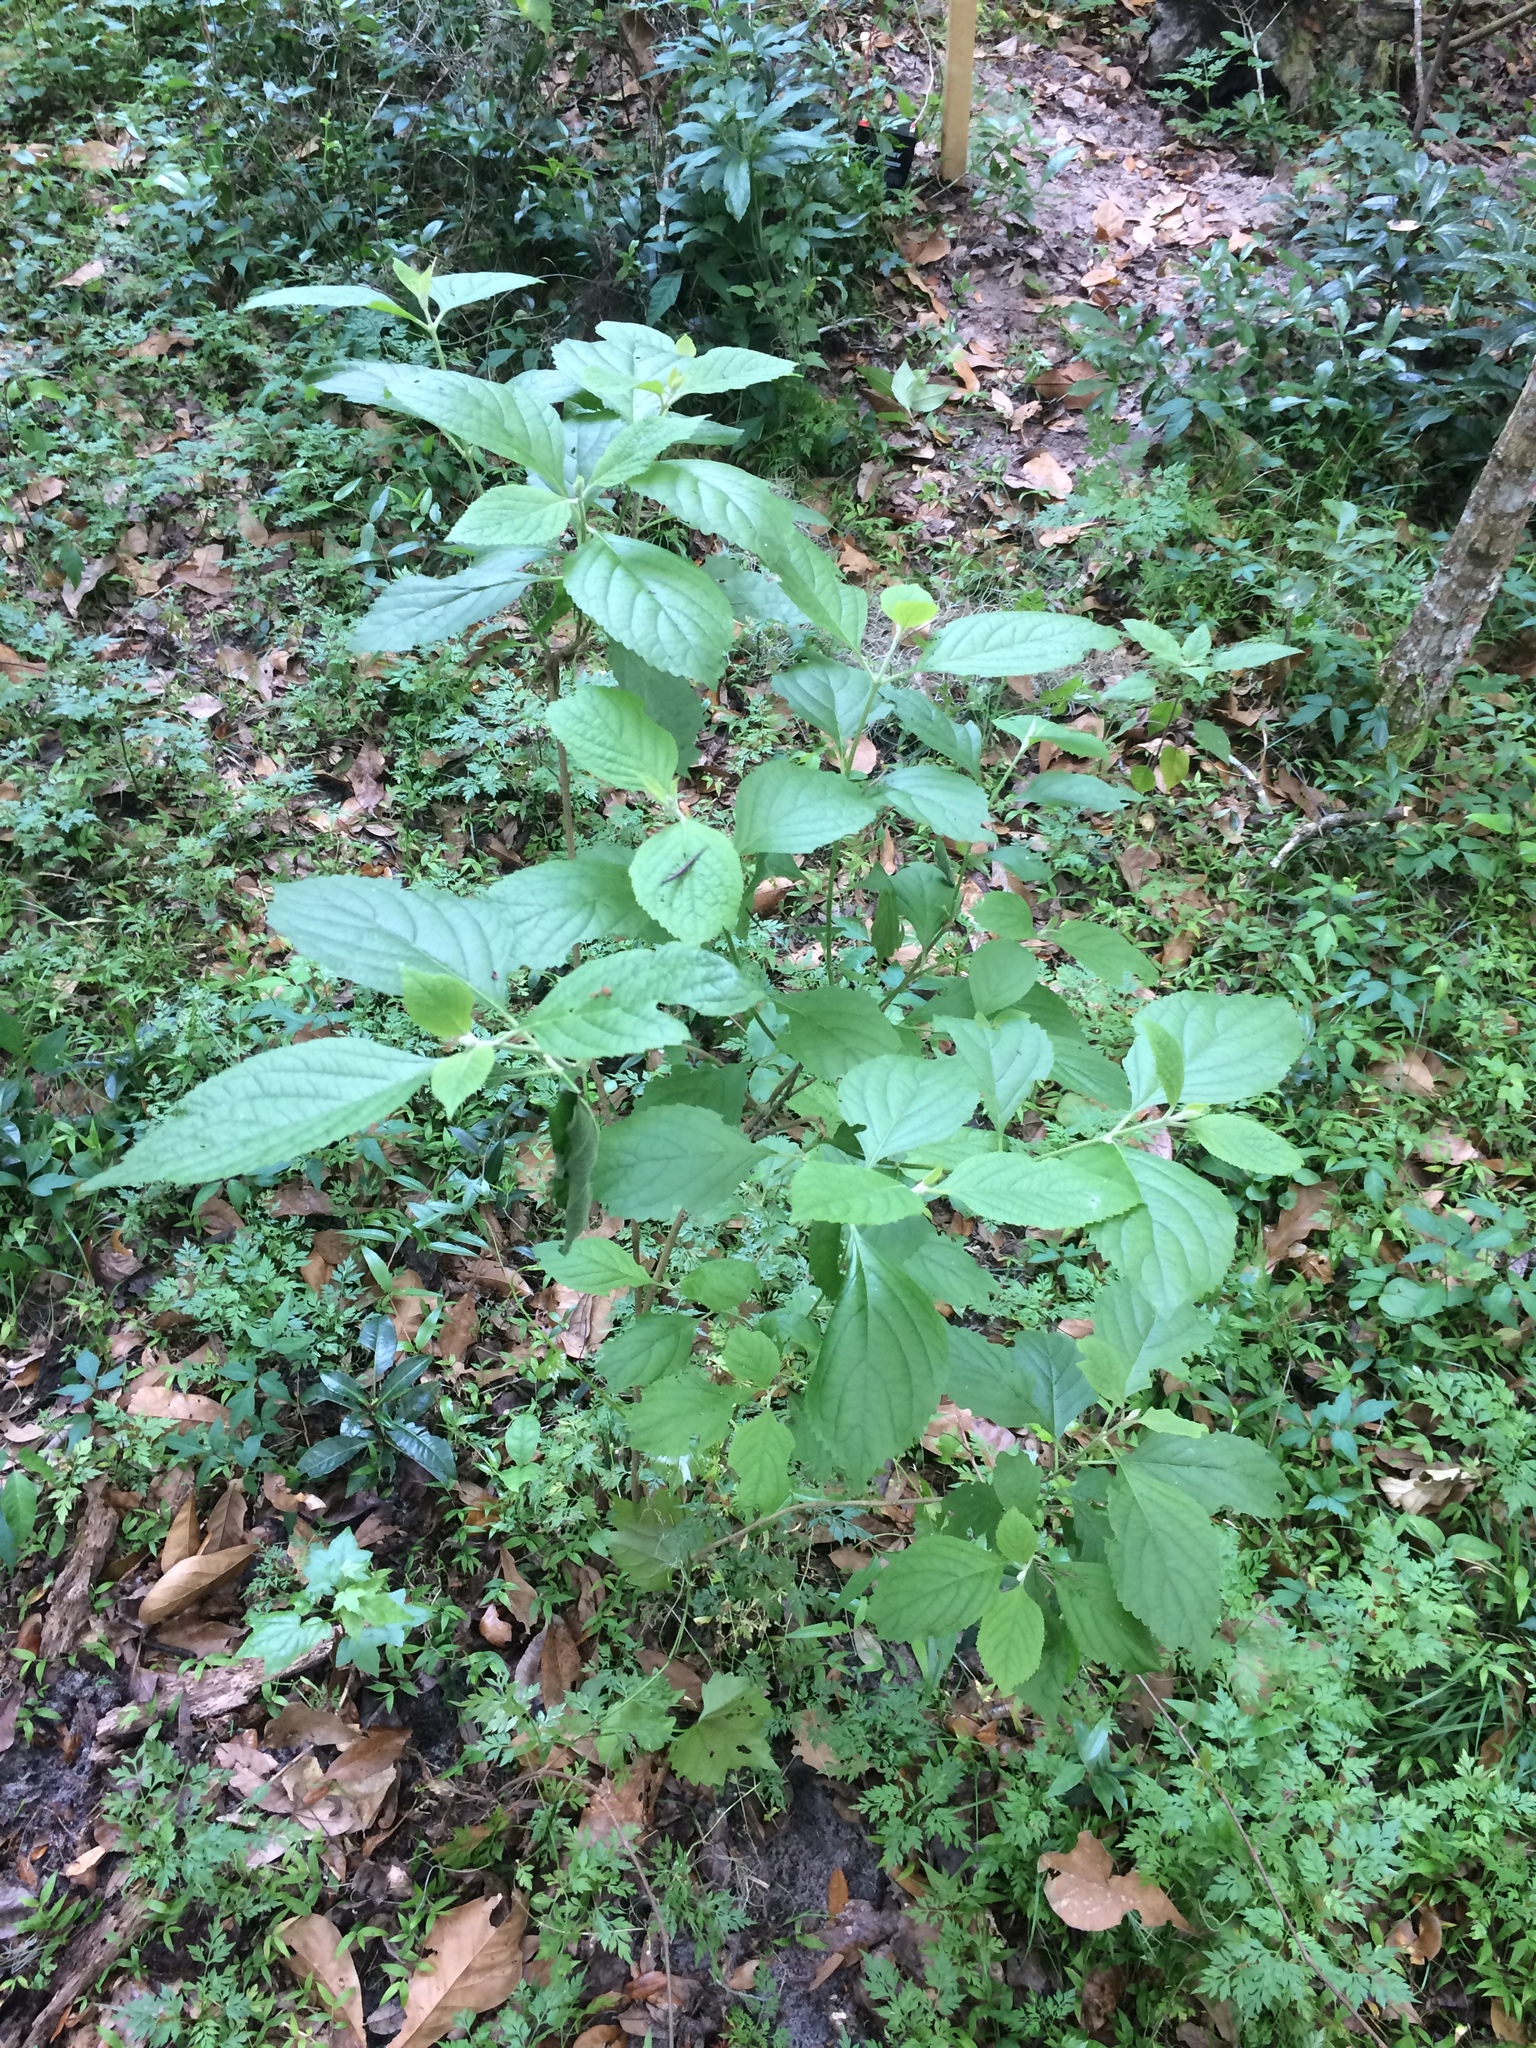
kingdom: Plantae
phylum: Tracheophyta
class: Magnoliopsida
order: Lamiales
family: Lamiaceae
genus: Callicarpa
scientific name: Callicarpa americana
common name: American beautyberry
